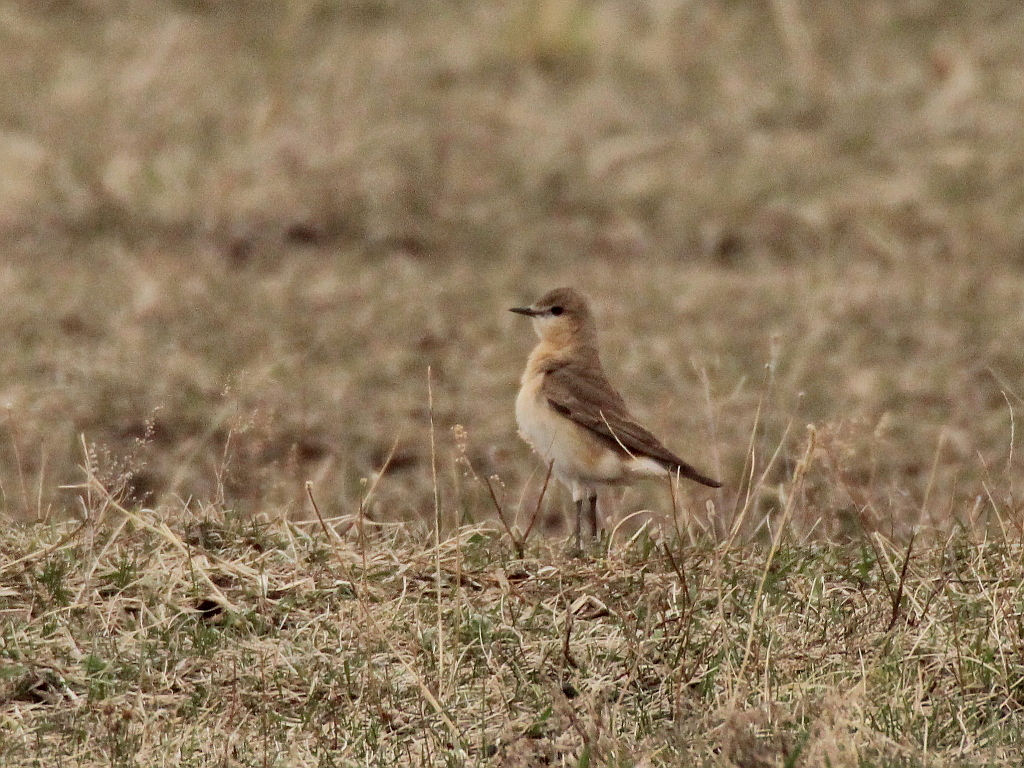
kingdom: Animalia
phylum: Chordata
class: Aves
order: Passeriformes
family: Muscicapidae
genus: Oenanthe
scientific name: Oenanthe isabellina
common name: Isabelline wheatear
